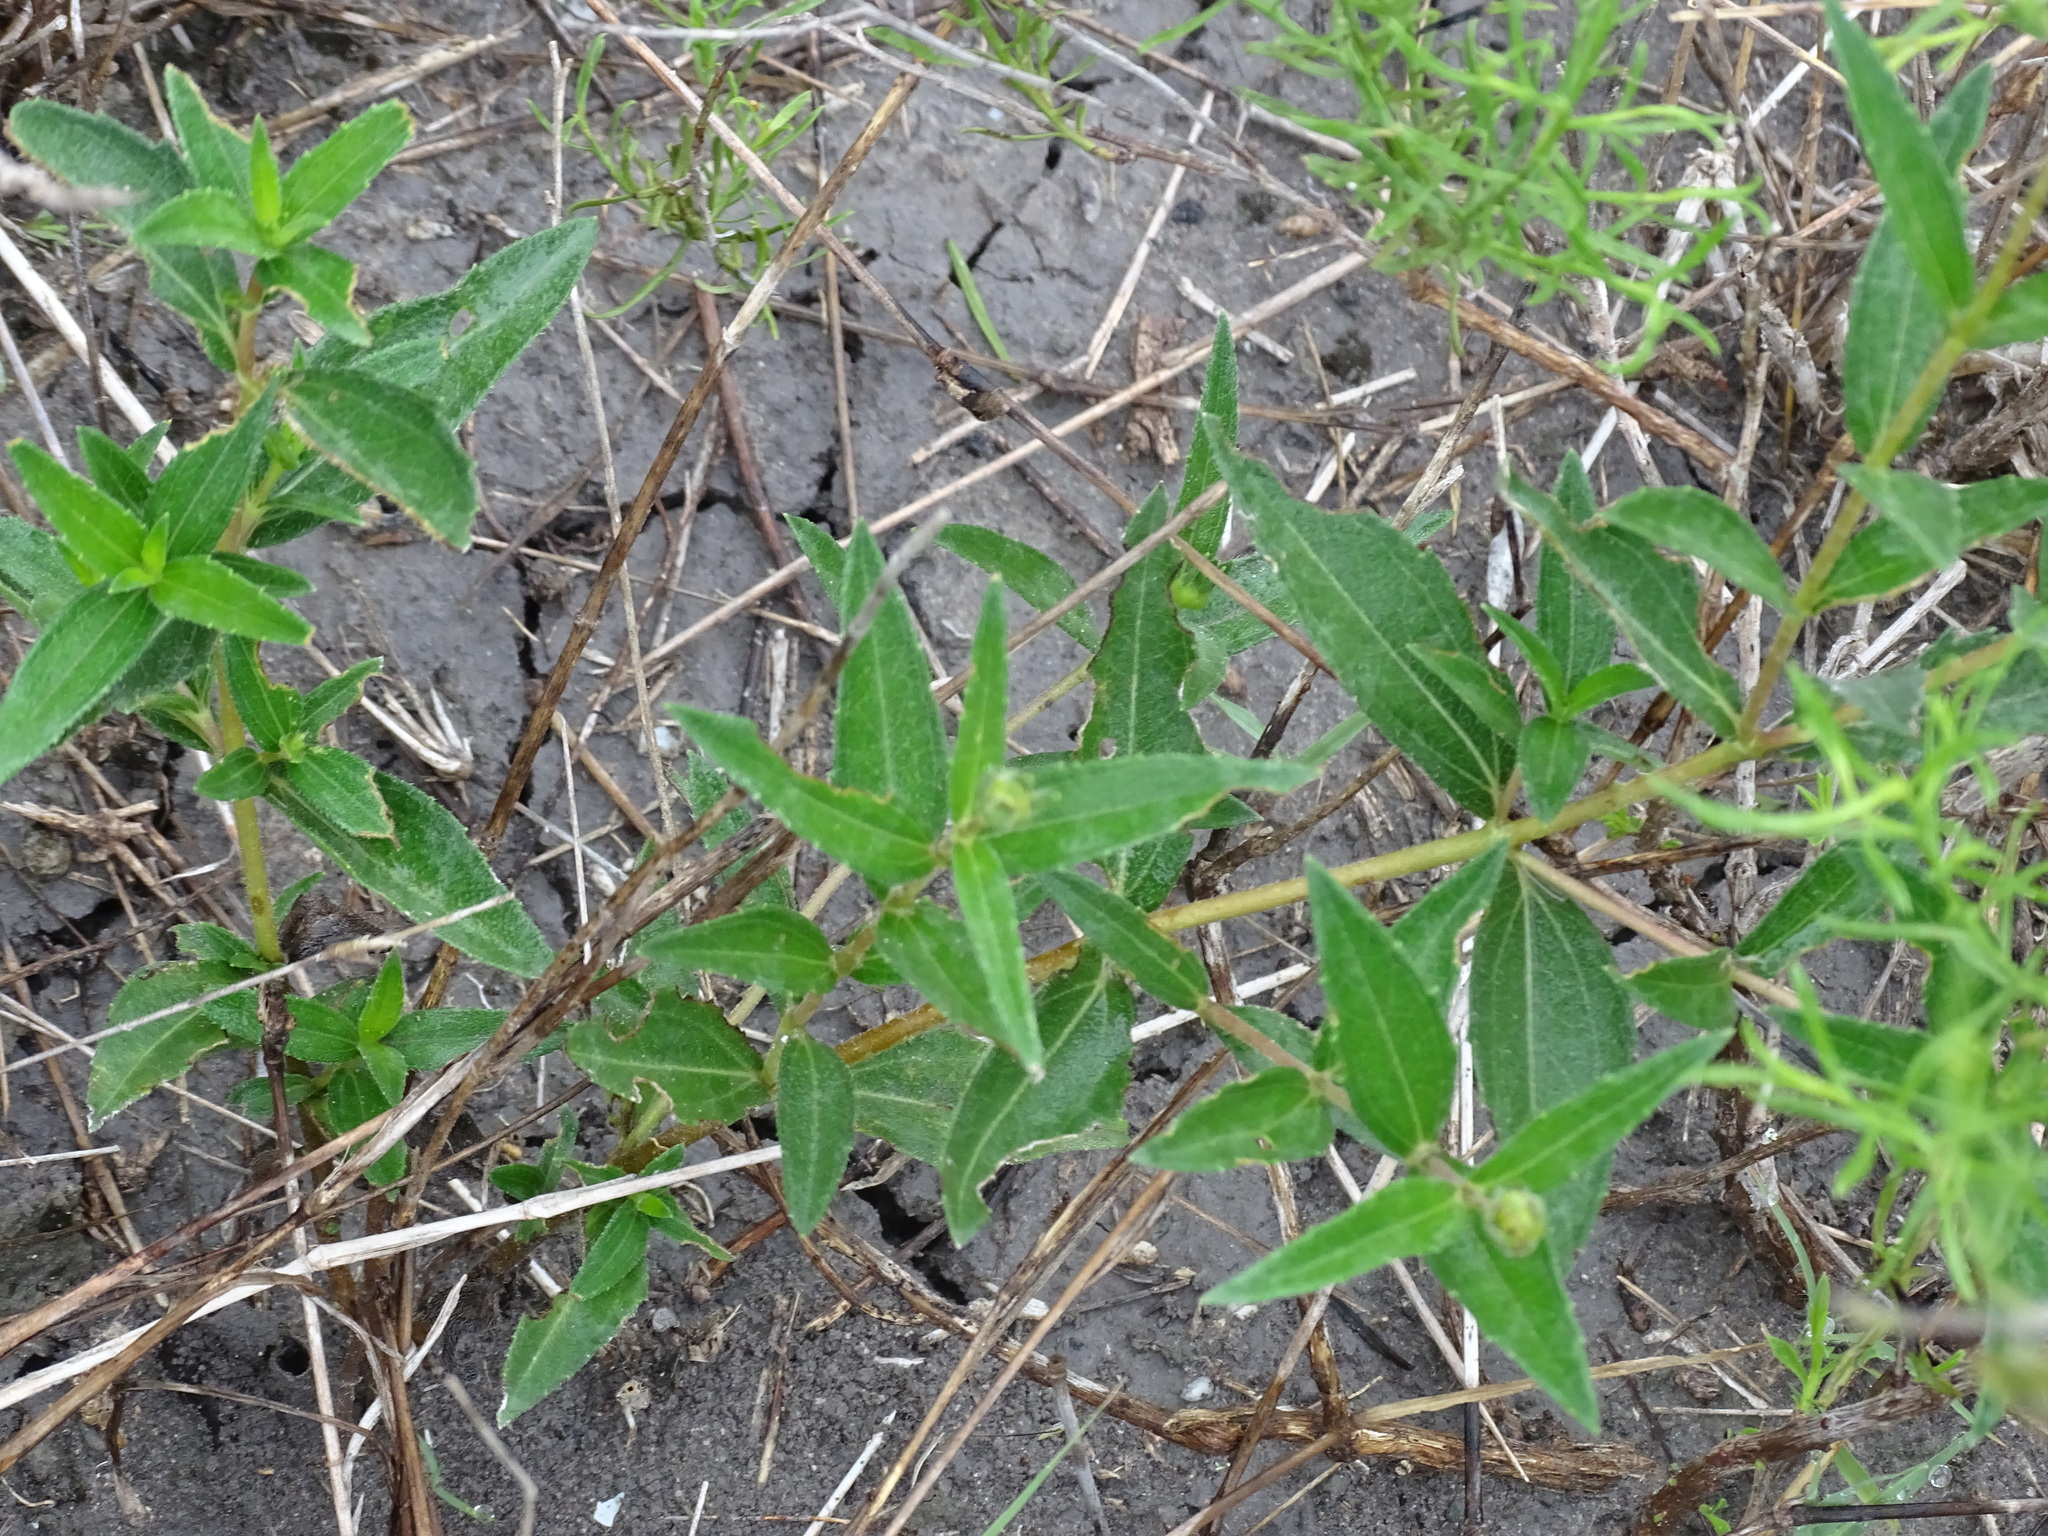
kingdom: Plantae
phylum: Tracheophyta
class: Magnoliopsida
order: Asterales
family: Asteraceae
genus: Wedelia
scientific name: Wedelia acapulcensis
